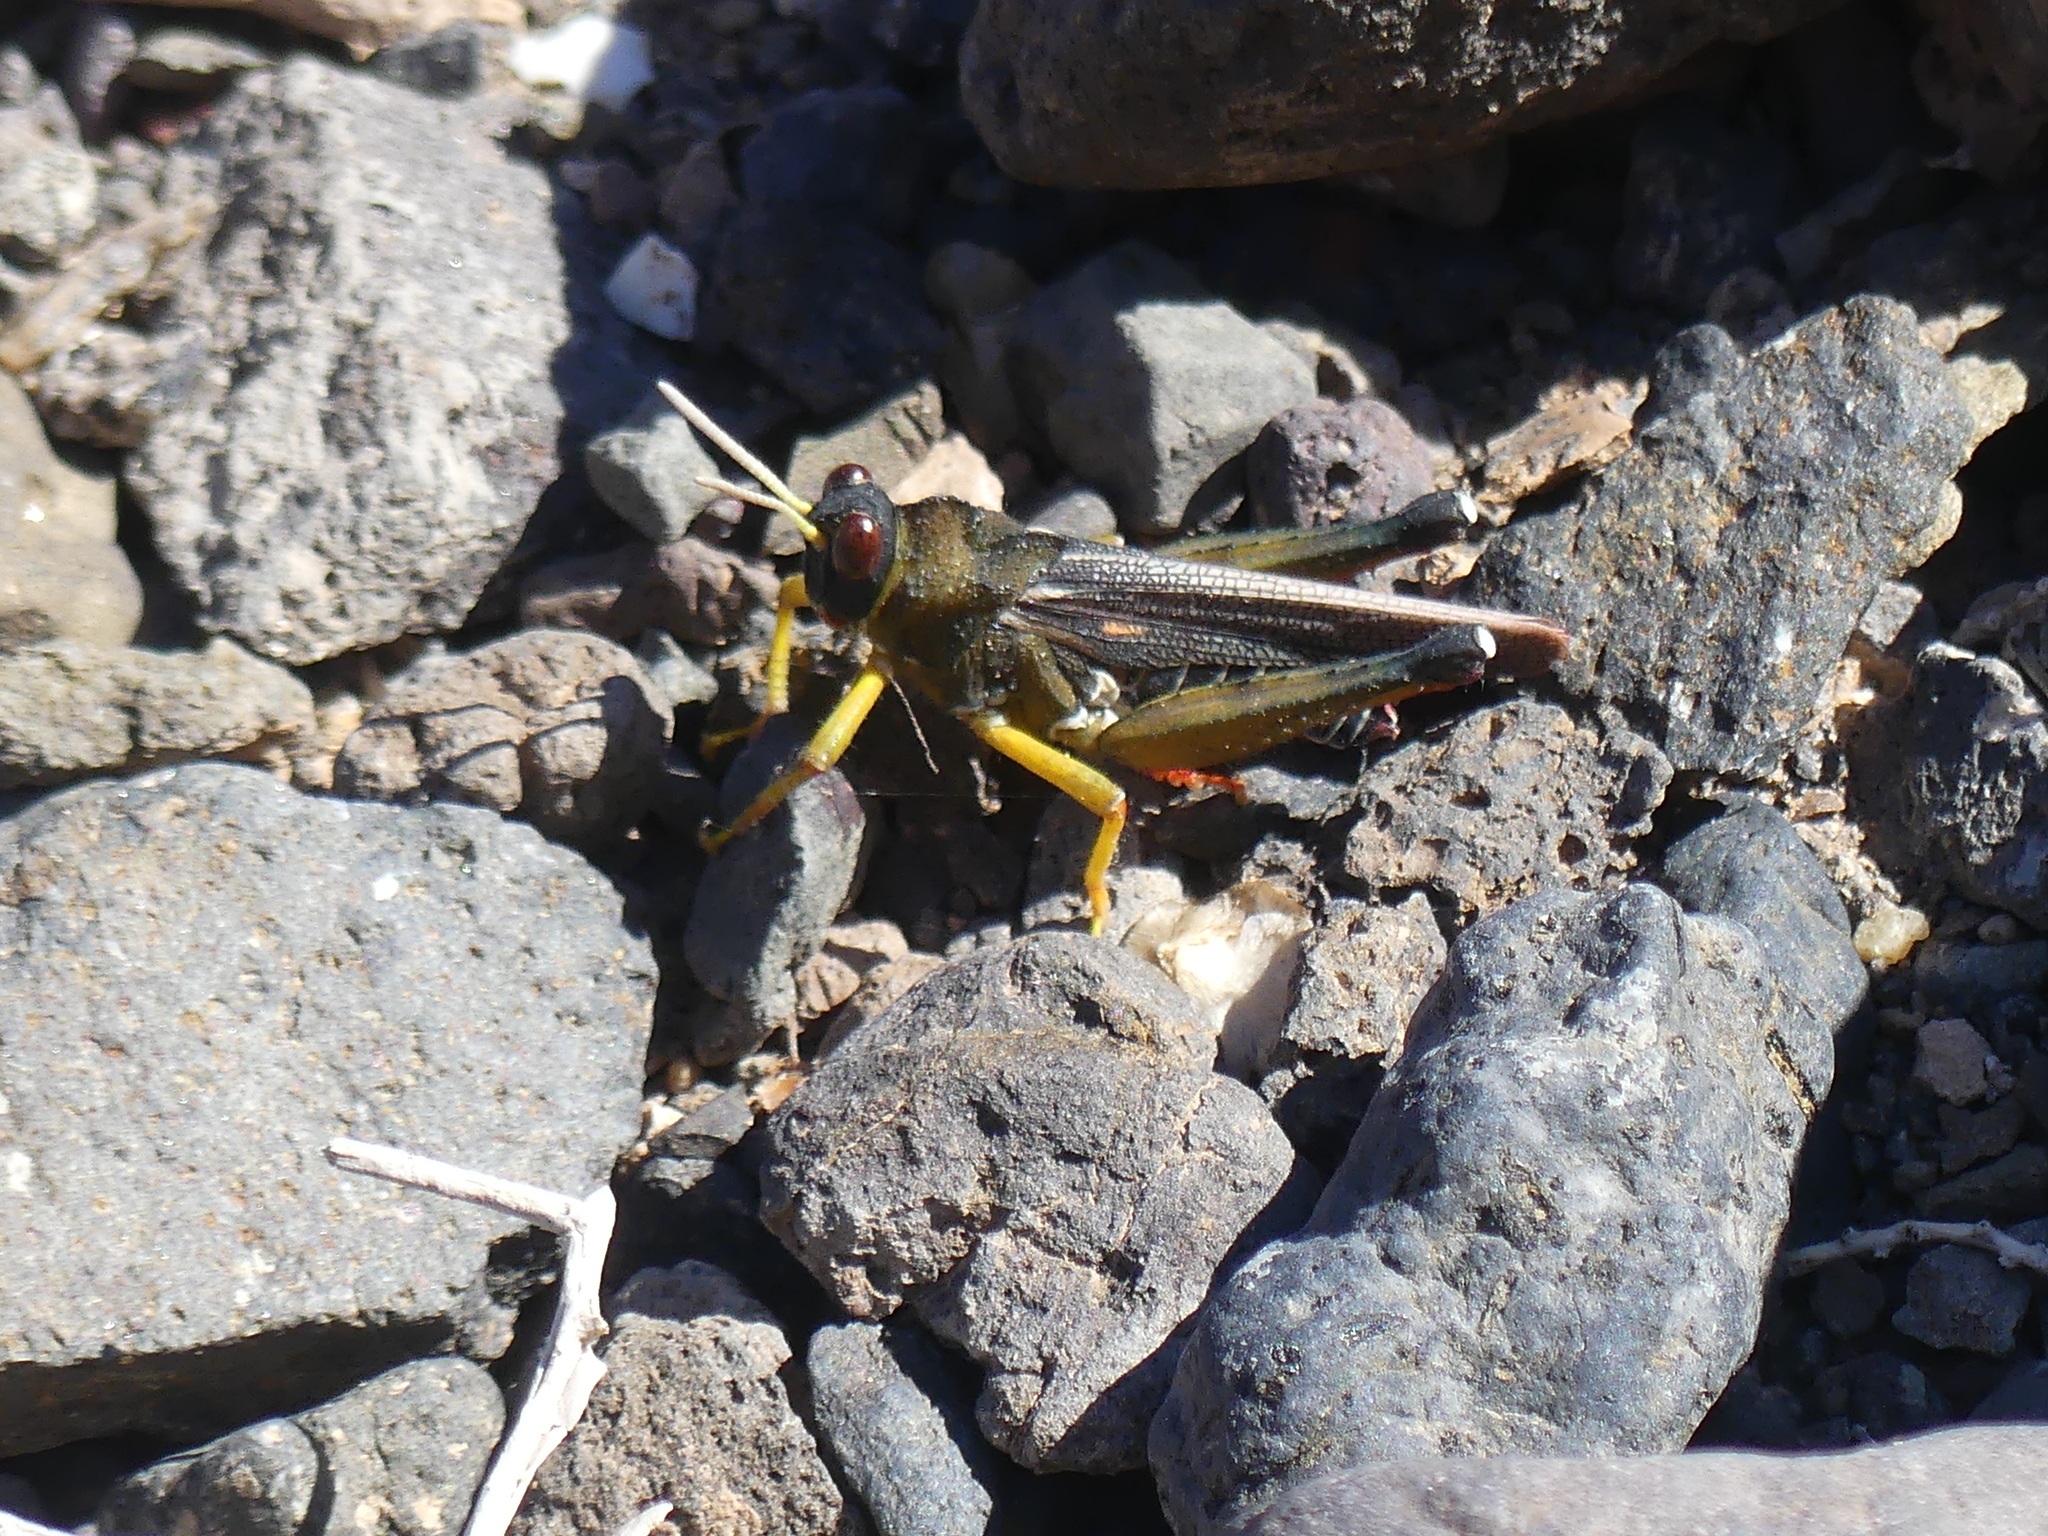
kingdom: Animalia
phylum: Arthropoda
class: Insecta
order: Orthoptera
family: Dericorythidae
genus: Dericorys
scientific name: Dericorys lobata
